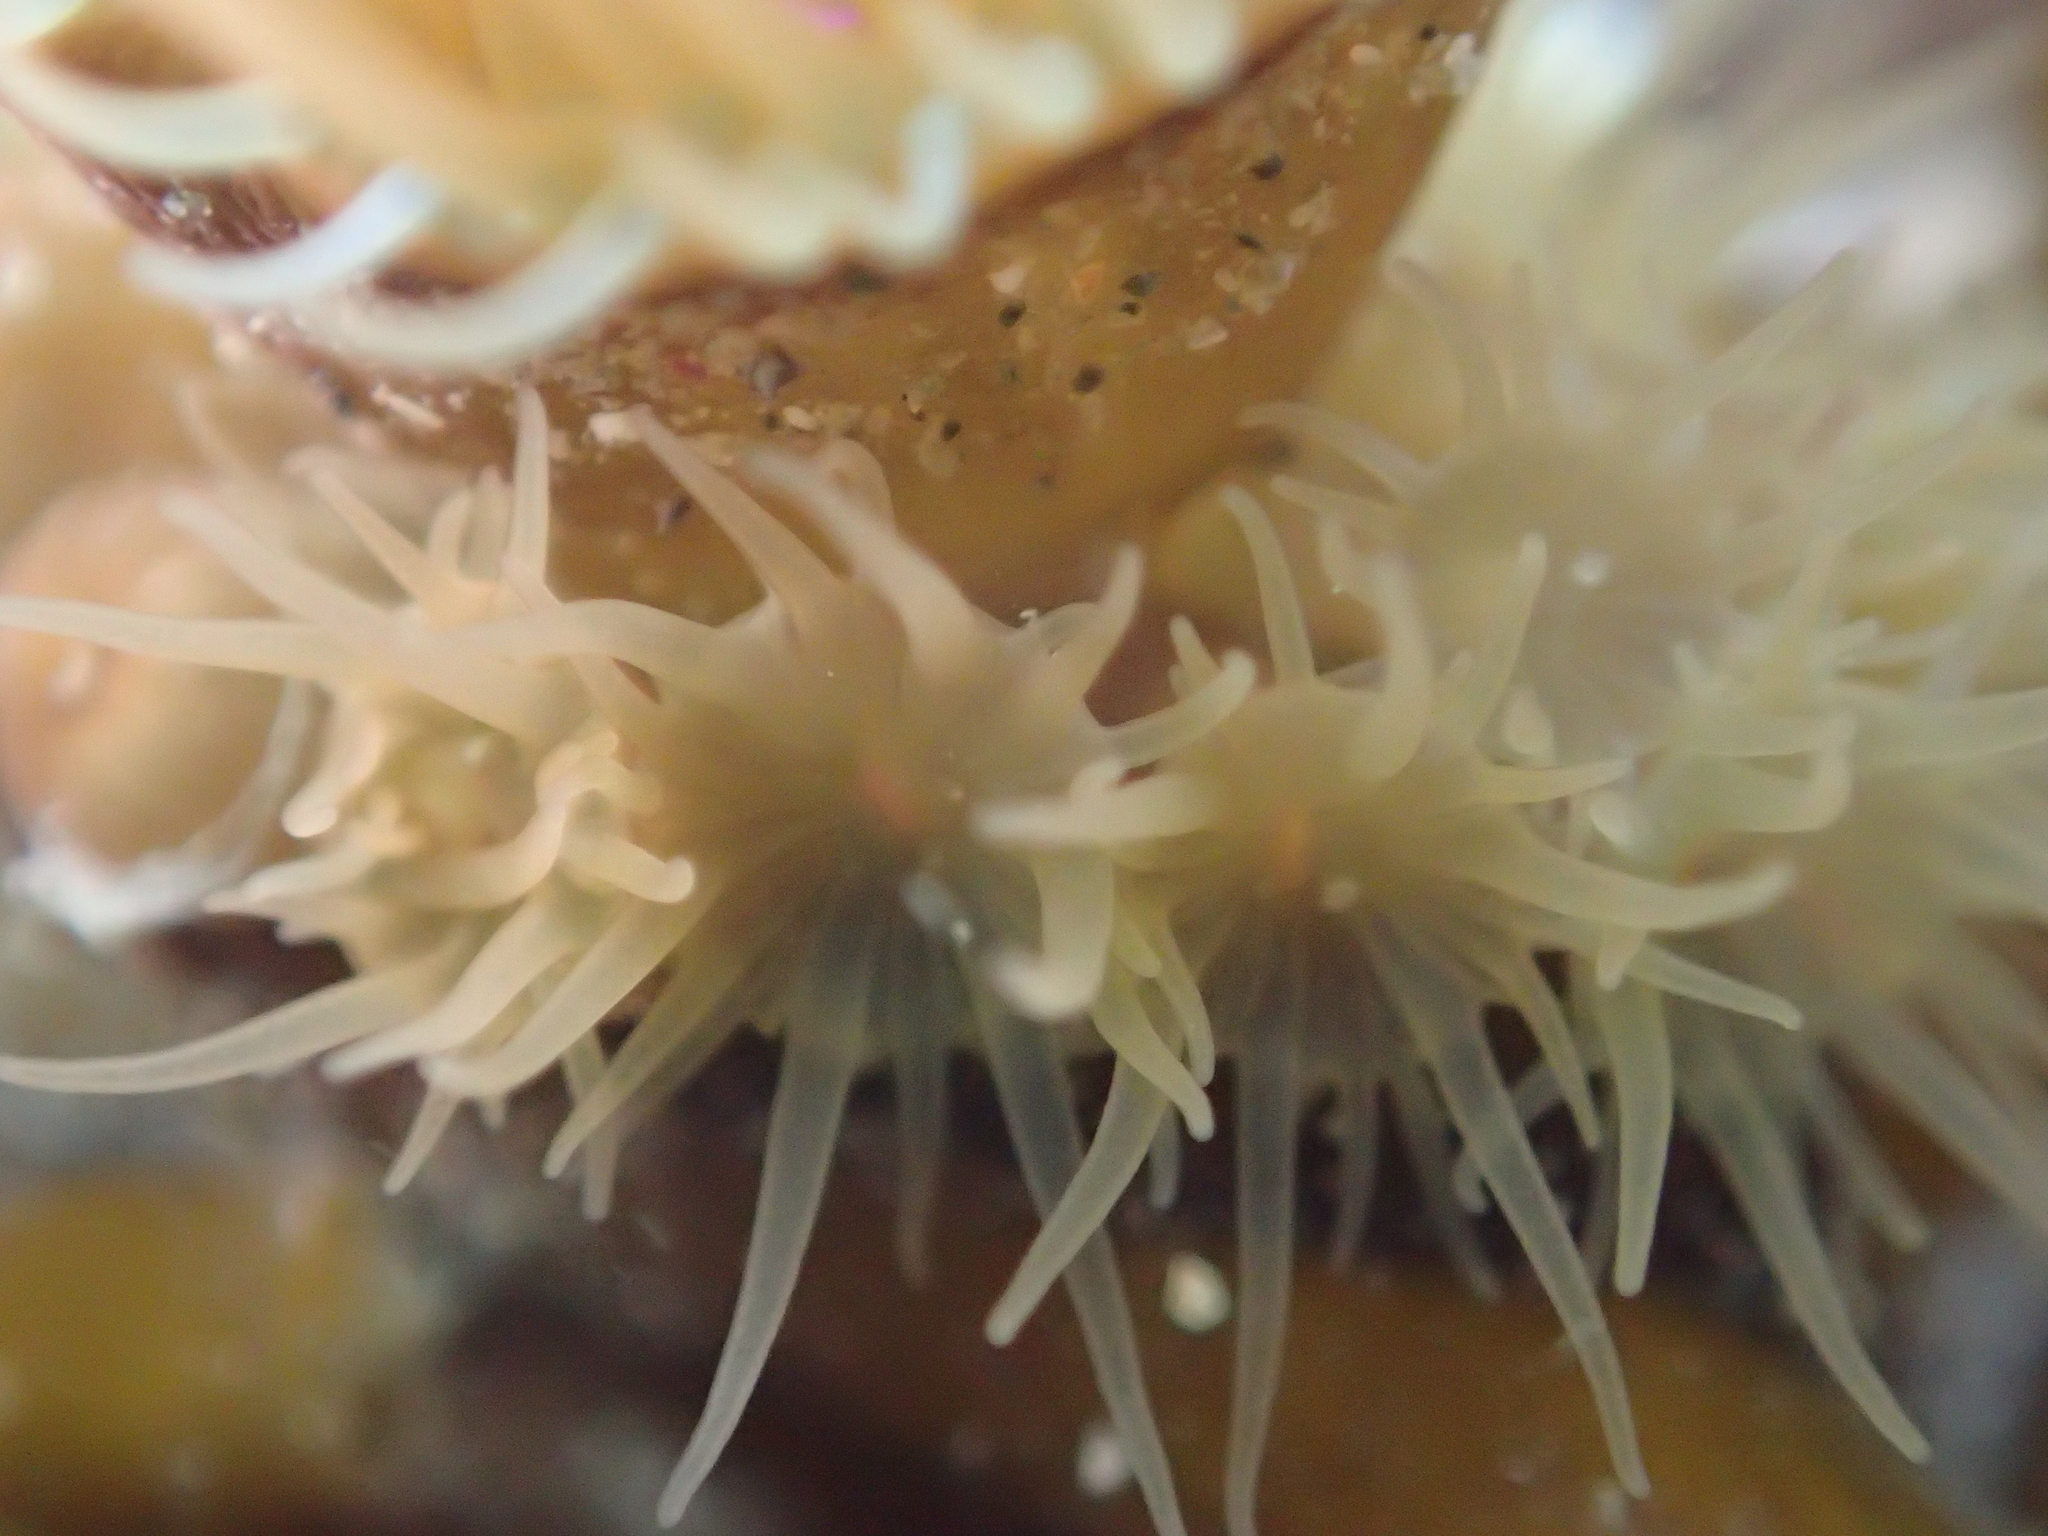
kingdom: Animalia
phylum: Cnidaria
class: Anthozoa
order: Actiniaria
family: Hormathiidae
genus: Handactis
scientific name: Handactis nutrix
